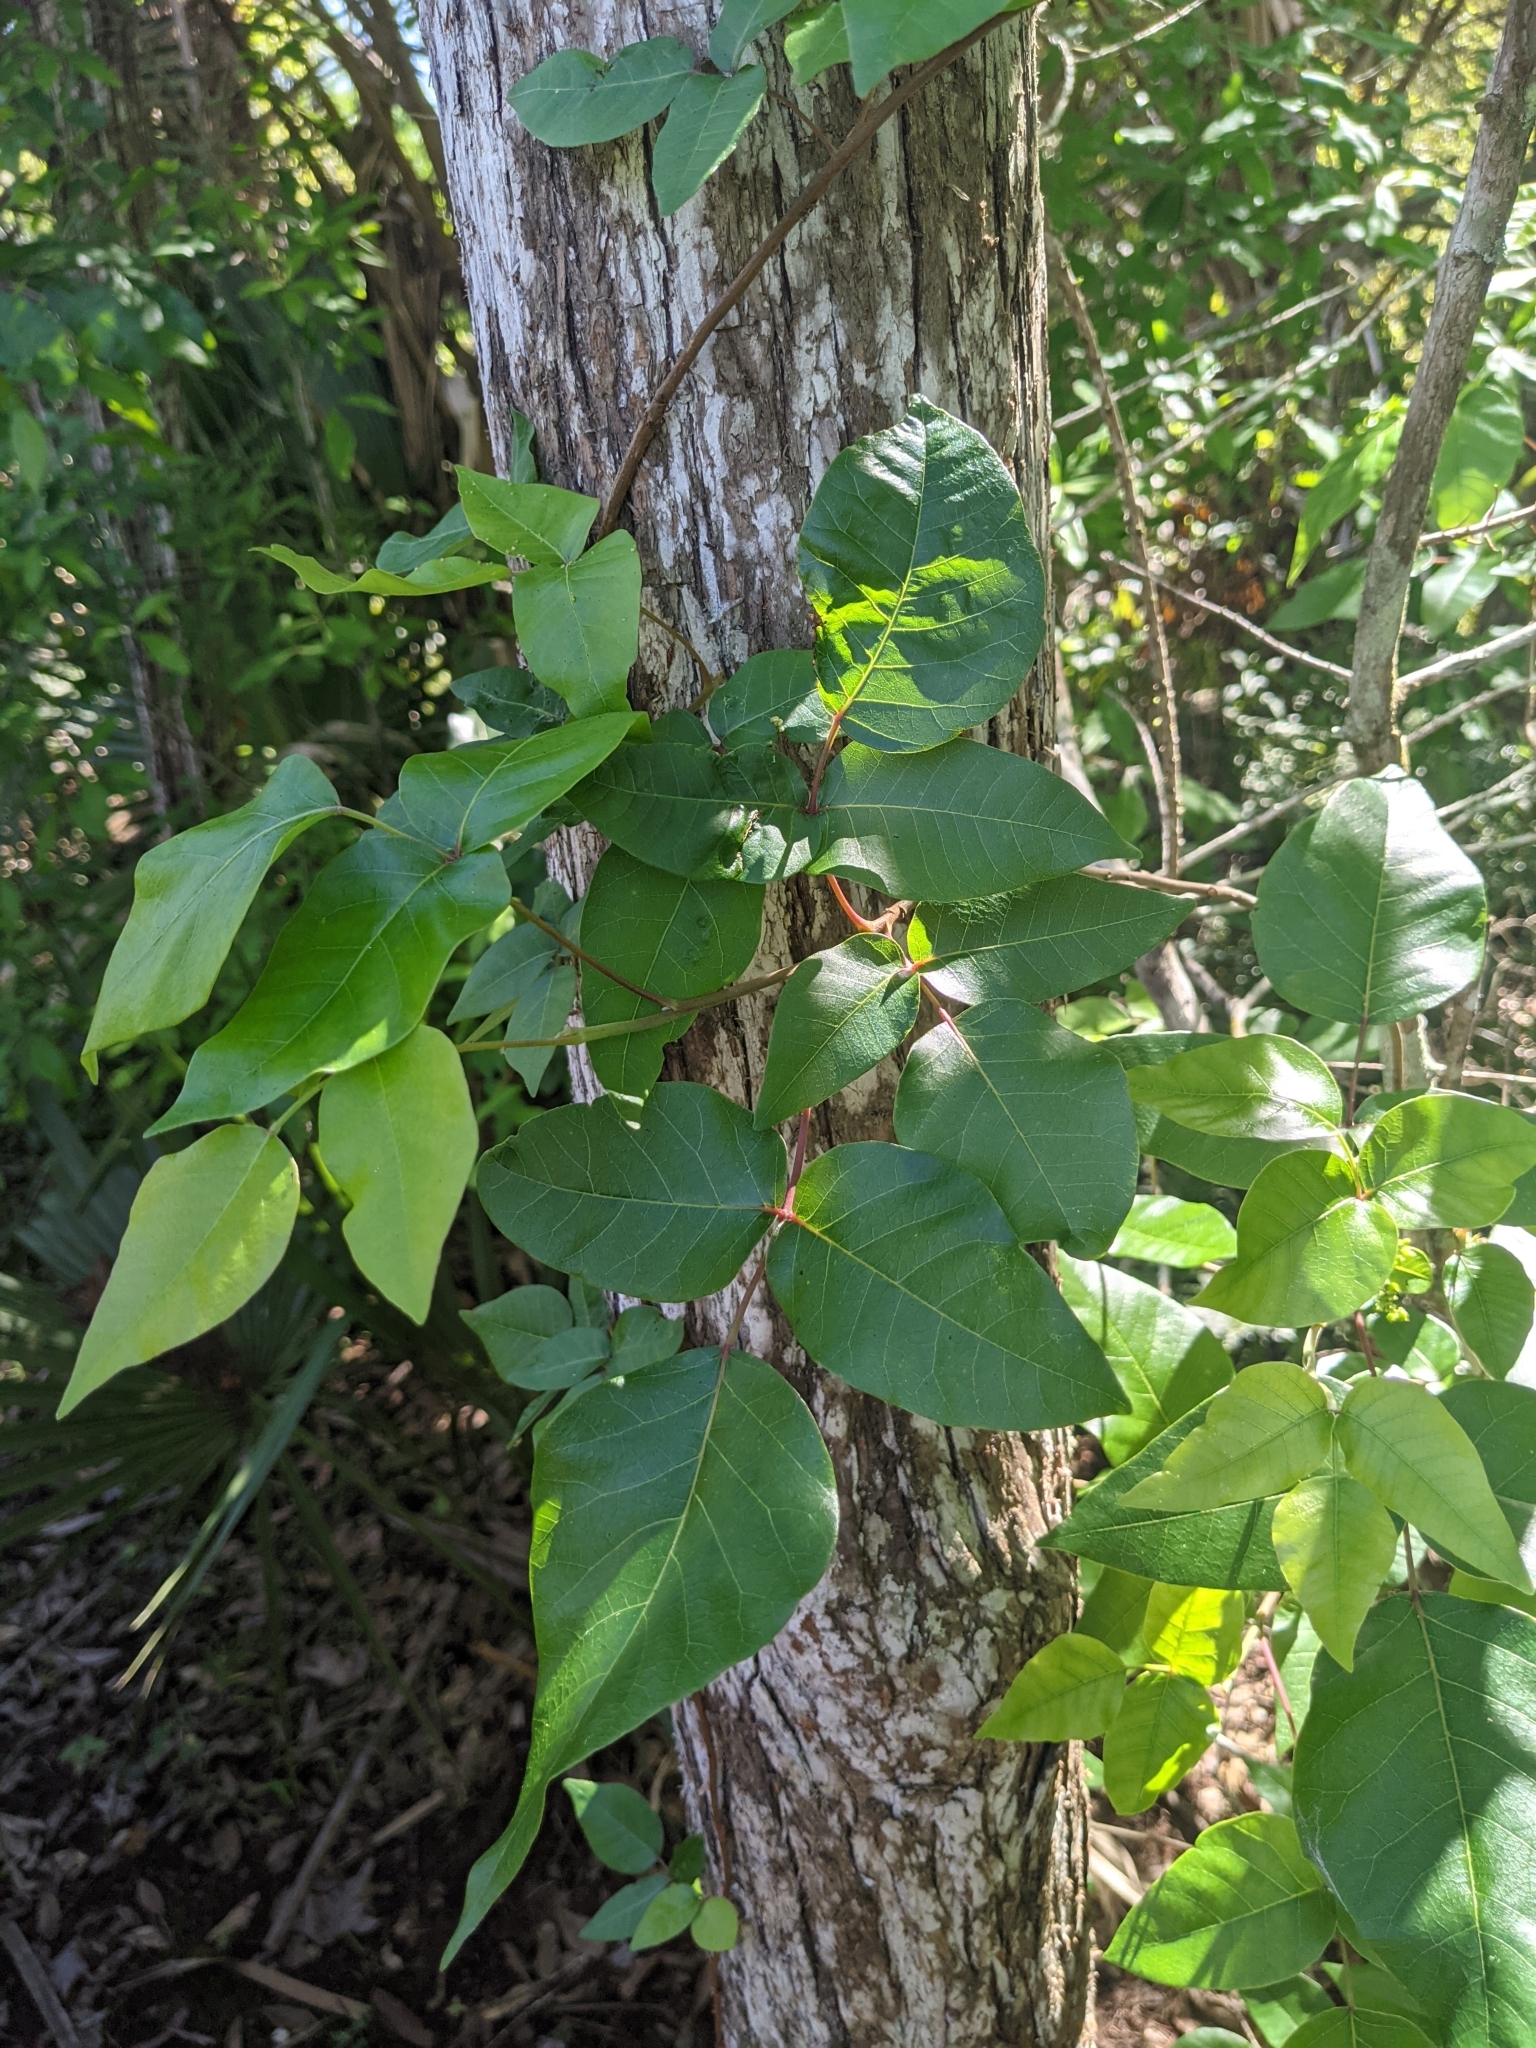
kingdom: Plantae
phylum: Tracheophyta
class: Magnoliopsida
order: Sapindales
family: Anacardiaceae
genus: Toxicodendron
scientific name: Toxicodendron radicans
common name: Poison ivy
